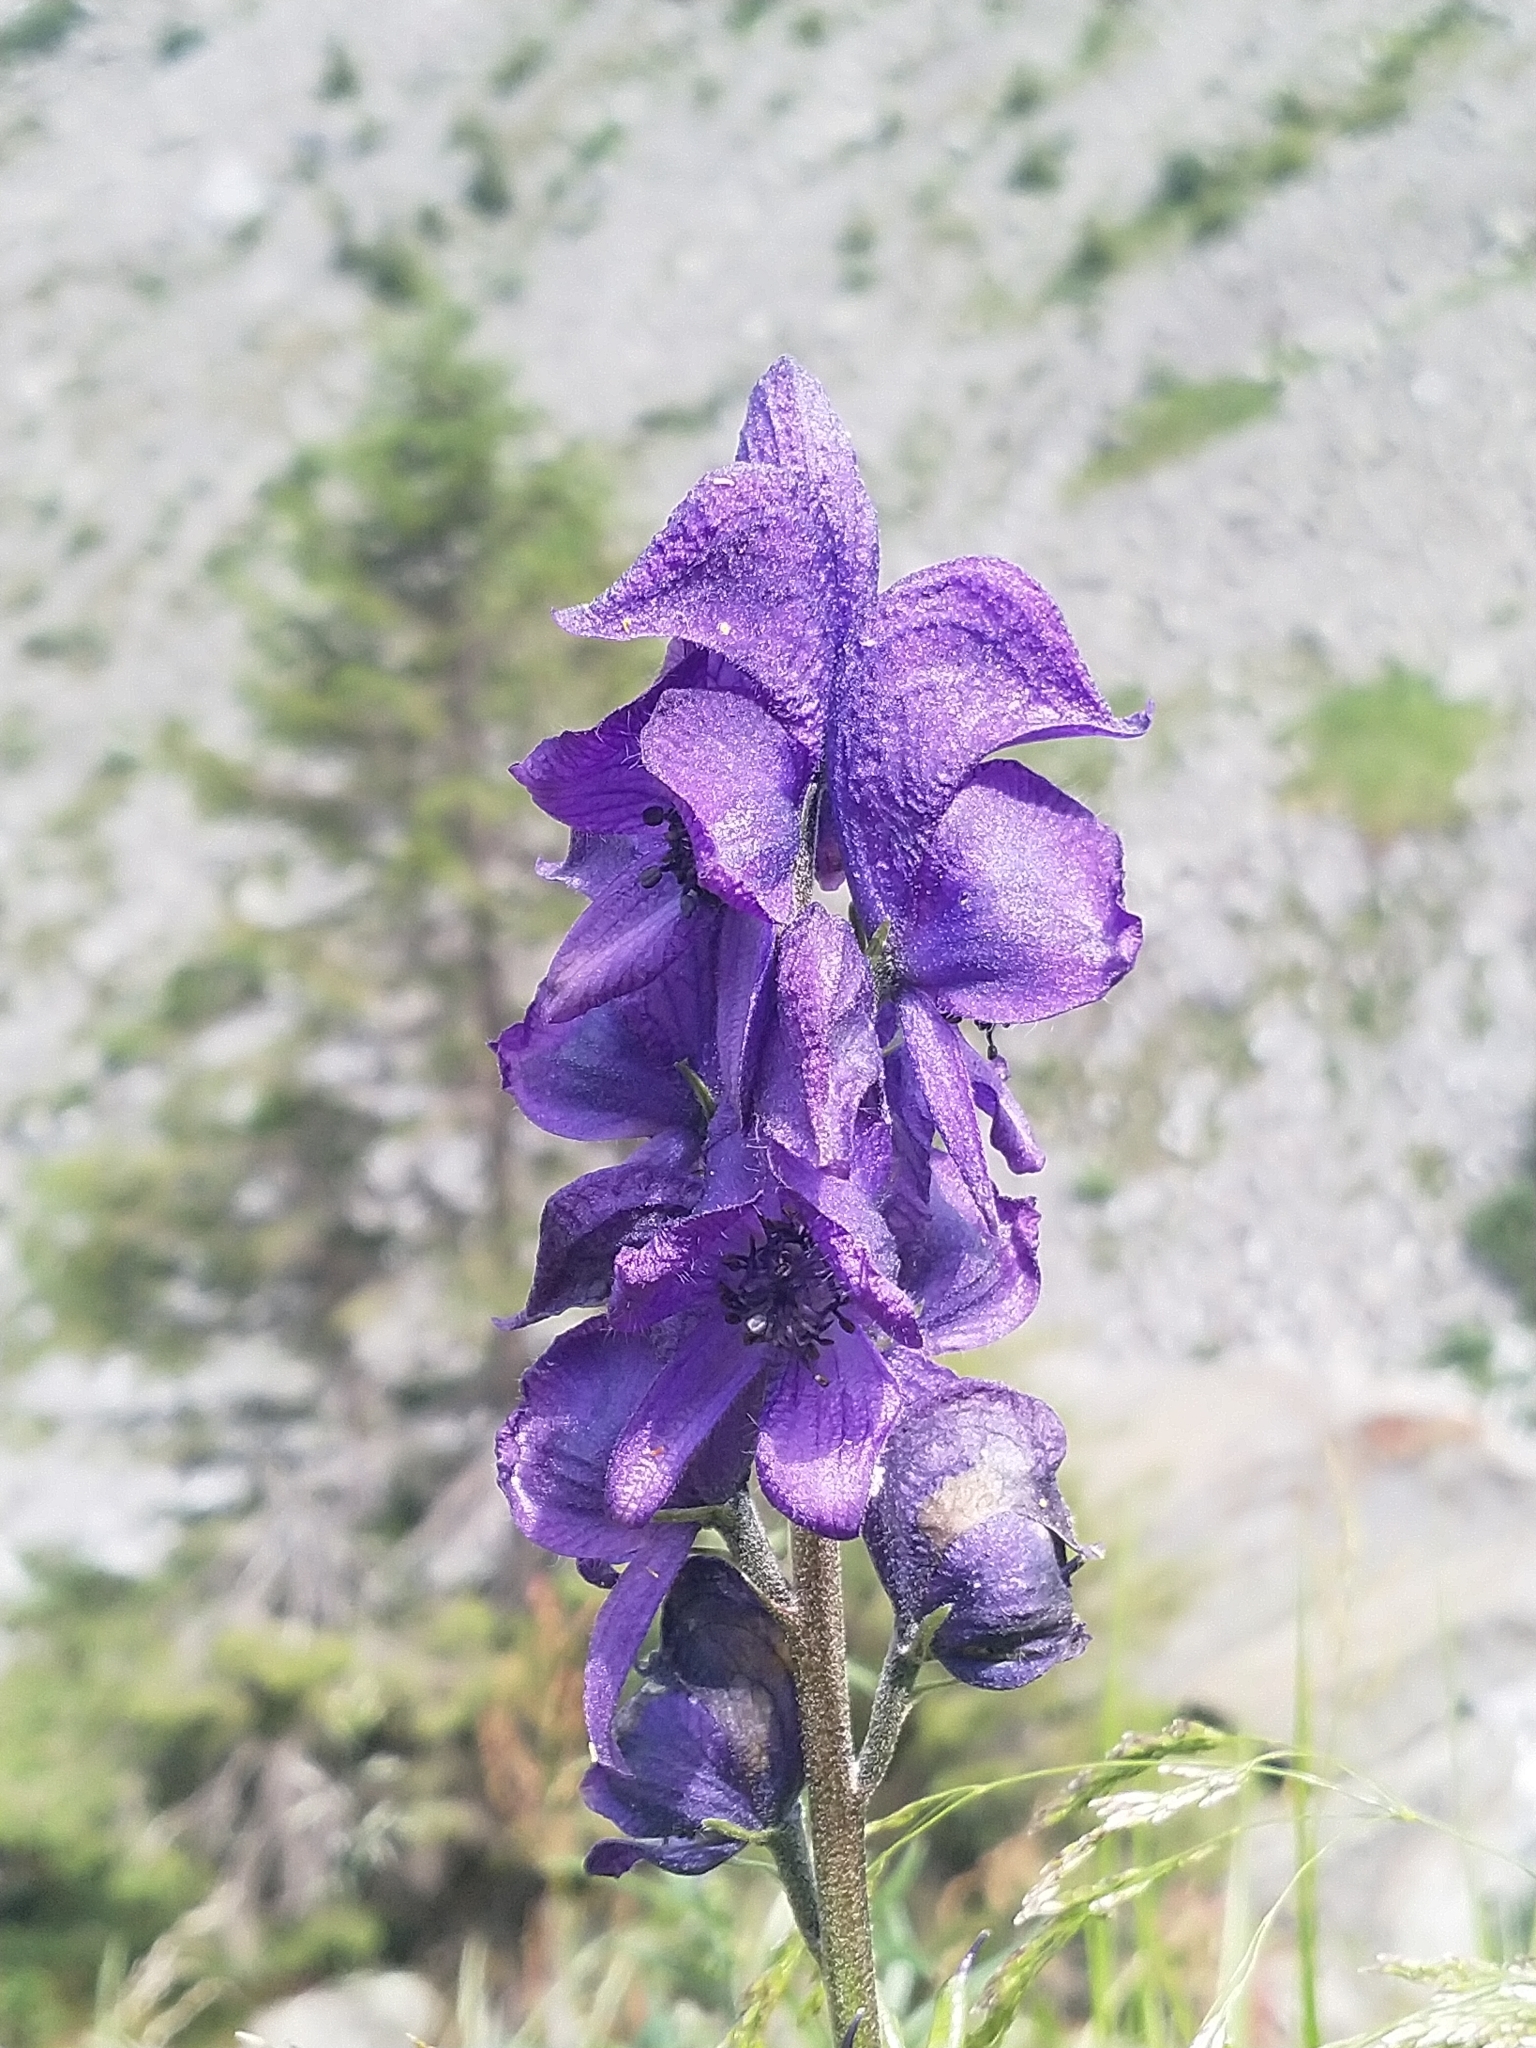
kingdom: Plantae
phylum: Tracheophyta
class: Magnoliopsida
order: Ranunculales
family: Ranunculaceae
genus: Aconitum
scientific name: Aconitum napellus
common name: Garden monkshood
